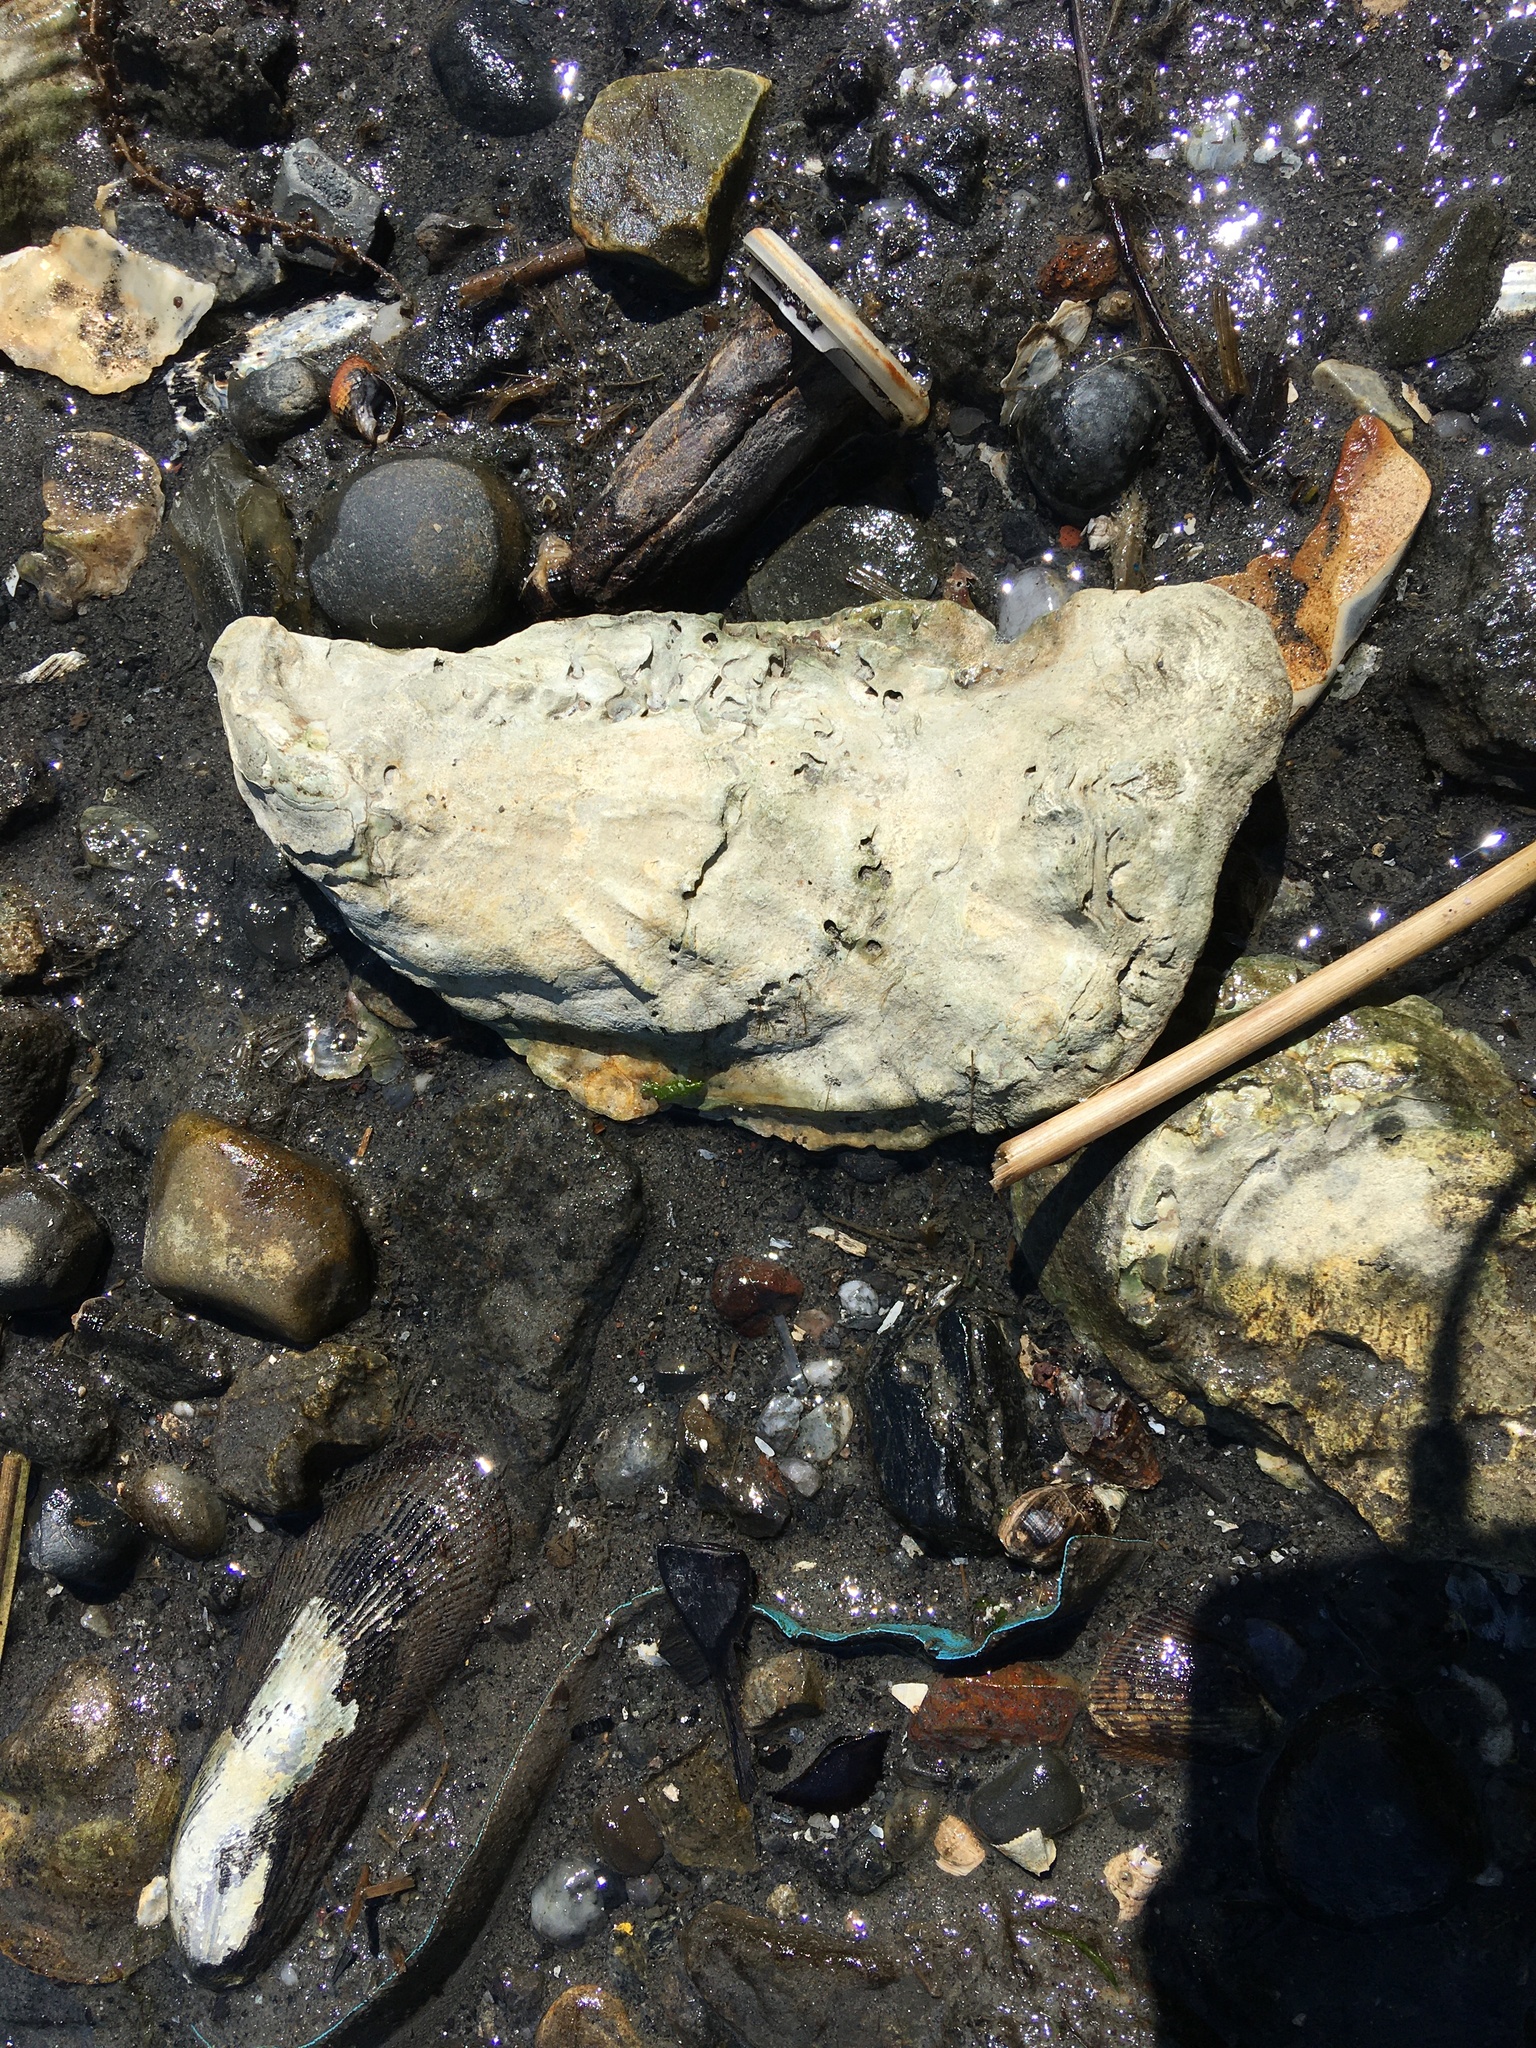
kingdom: Animalia
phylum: Mollusca
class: Bivalvia
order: Ostreida
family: Ostreidae
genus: Crassostrea
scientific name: Crassostrea virginica
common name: American oyster
